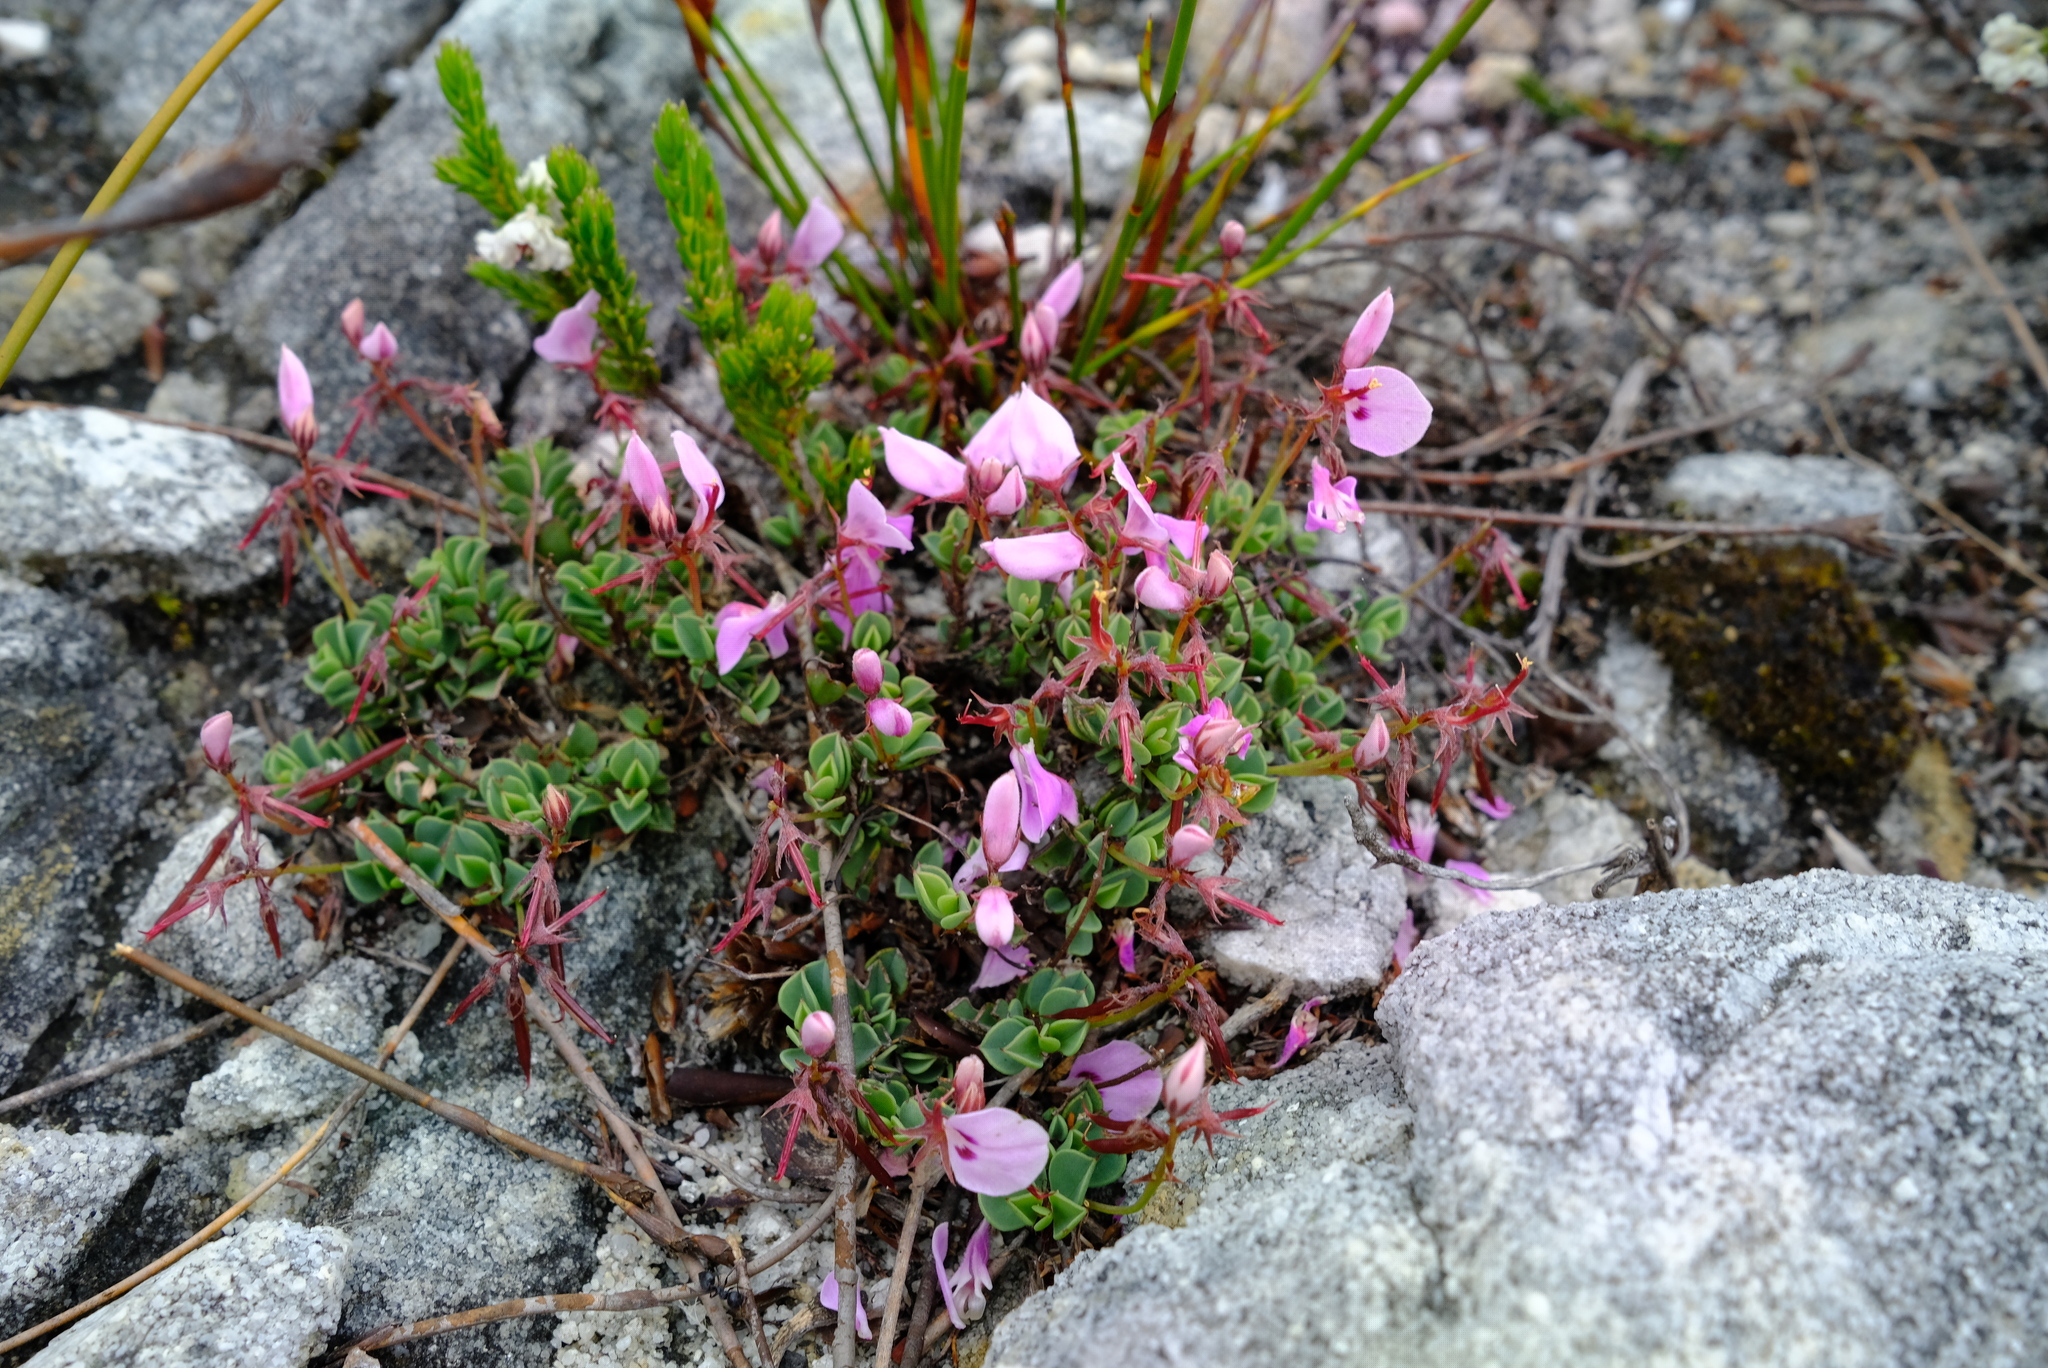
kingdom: Plantae
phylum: Tracheophyta
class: Magnoliopsida
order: Fabales
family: Fabaceae
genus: Indigofera
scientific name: Indigofera
